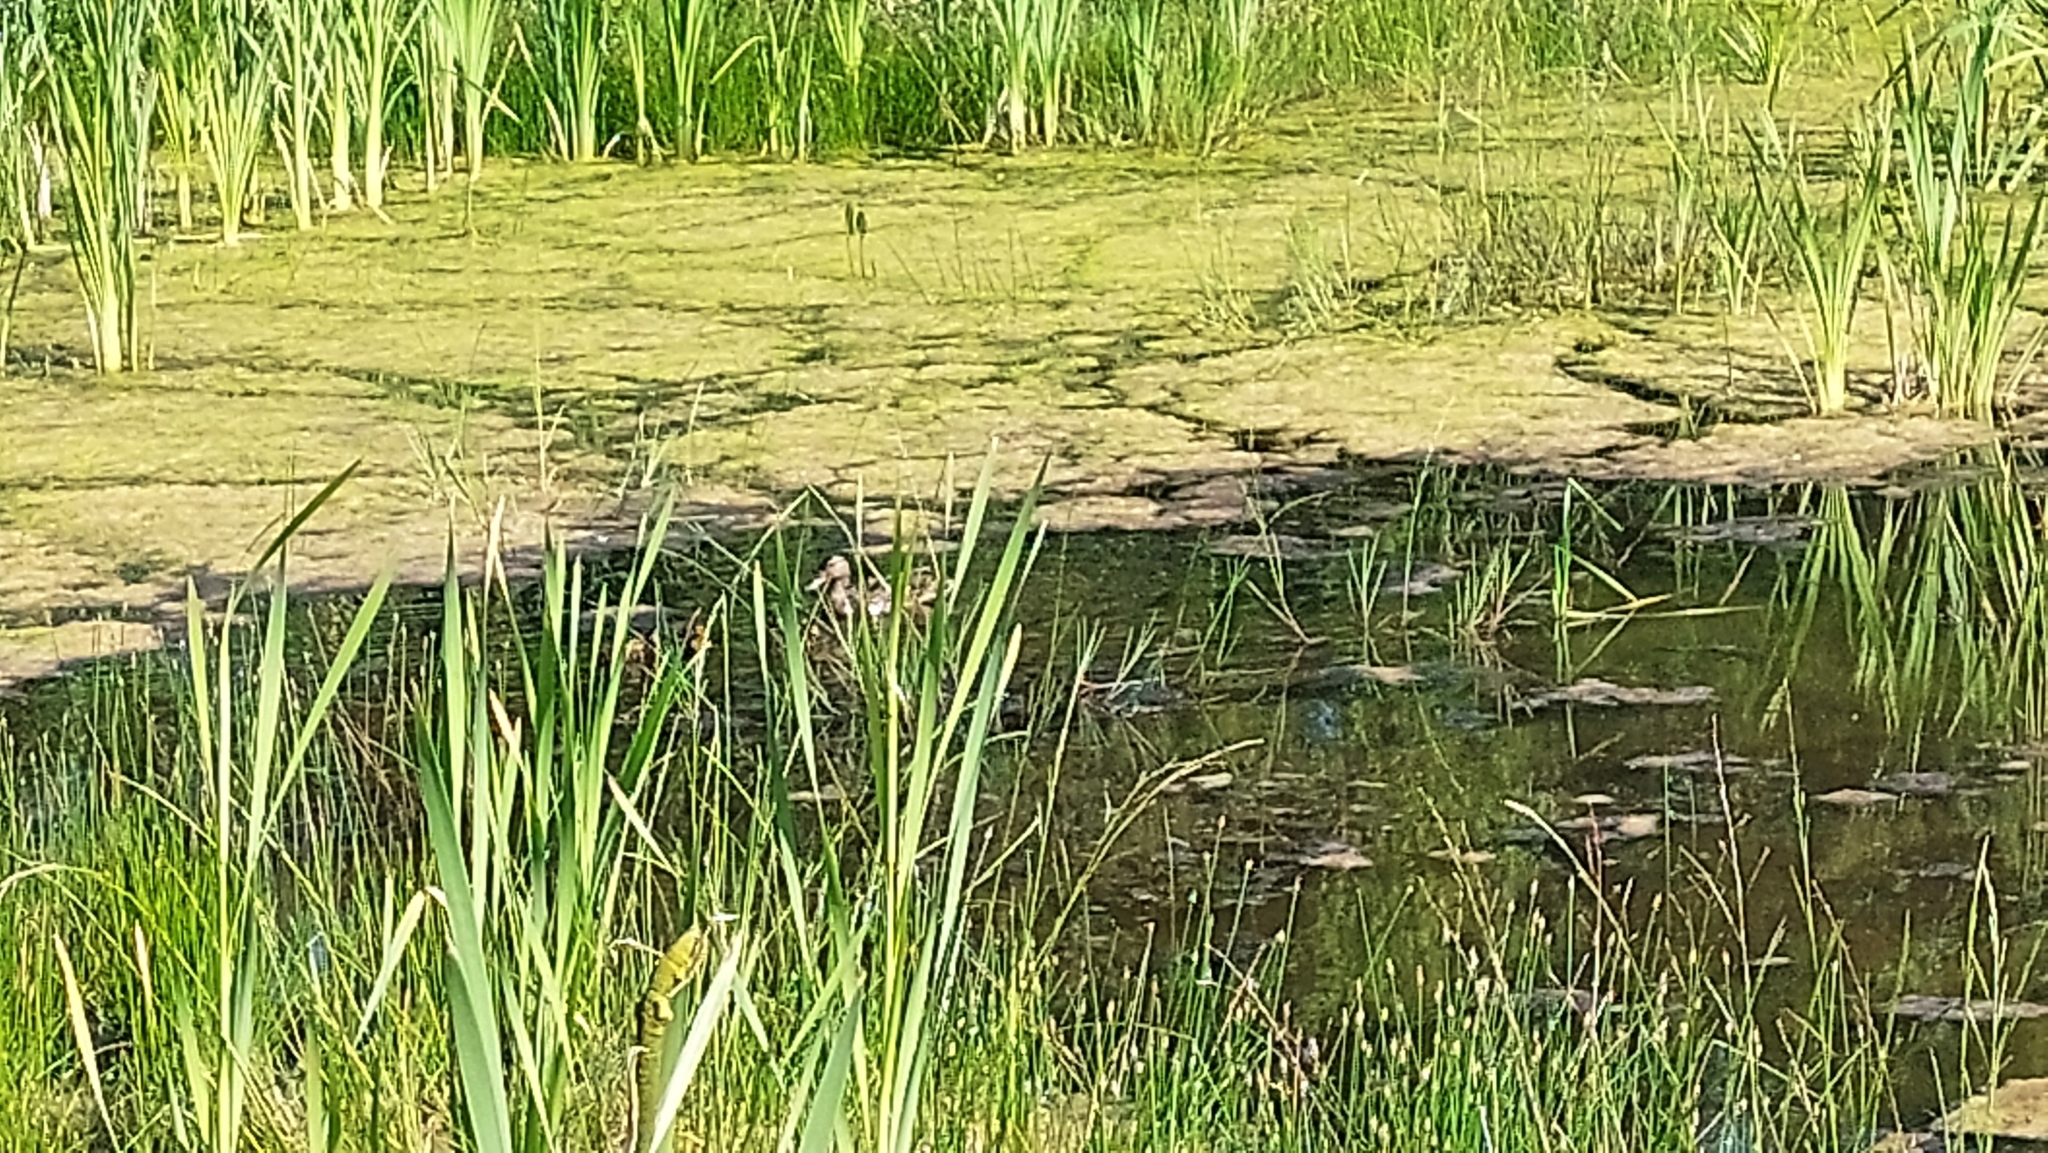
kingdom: Animalia
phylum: Chordata
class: Aves
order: Anseriformes
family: Anatidae
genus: Anas
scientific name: Anas platyrhynchos
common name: Mallard
